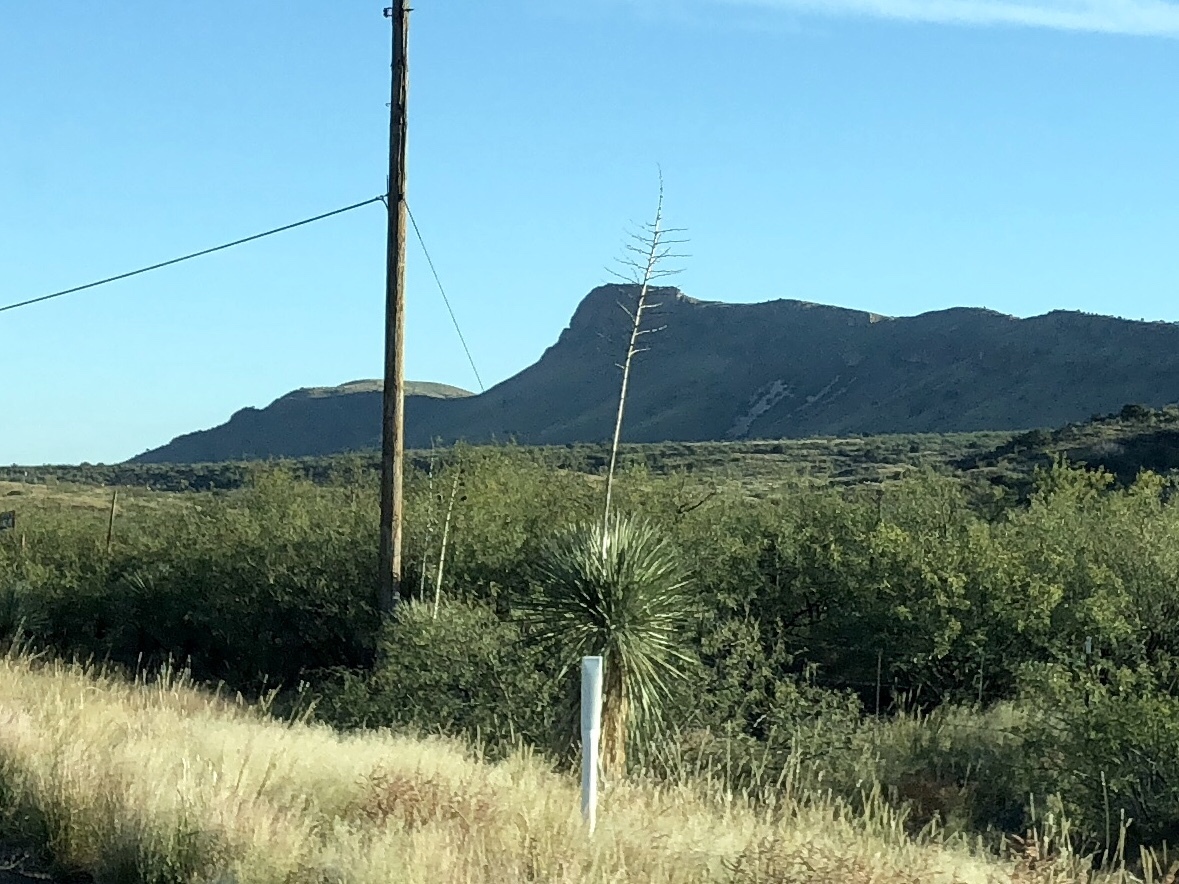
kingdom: Plantae
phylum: Tracheophyta
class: Liliopsida
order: Asparagales
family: Asparagaceae
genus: Yucca
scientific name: Yucca elata
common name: Palmella
